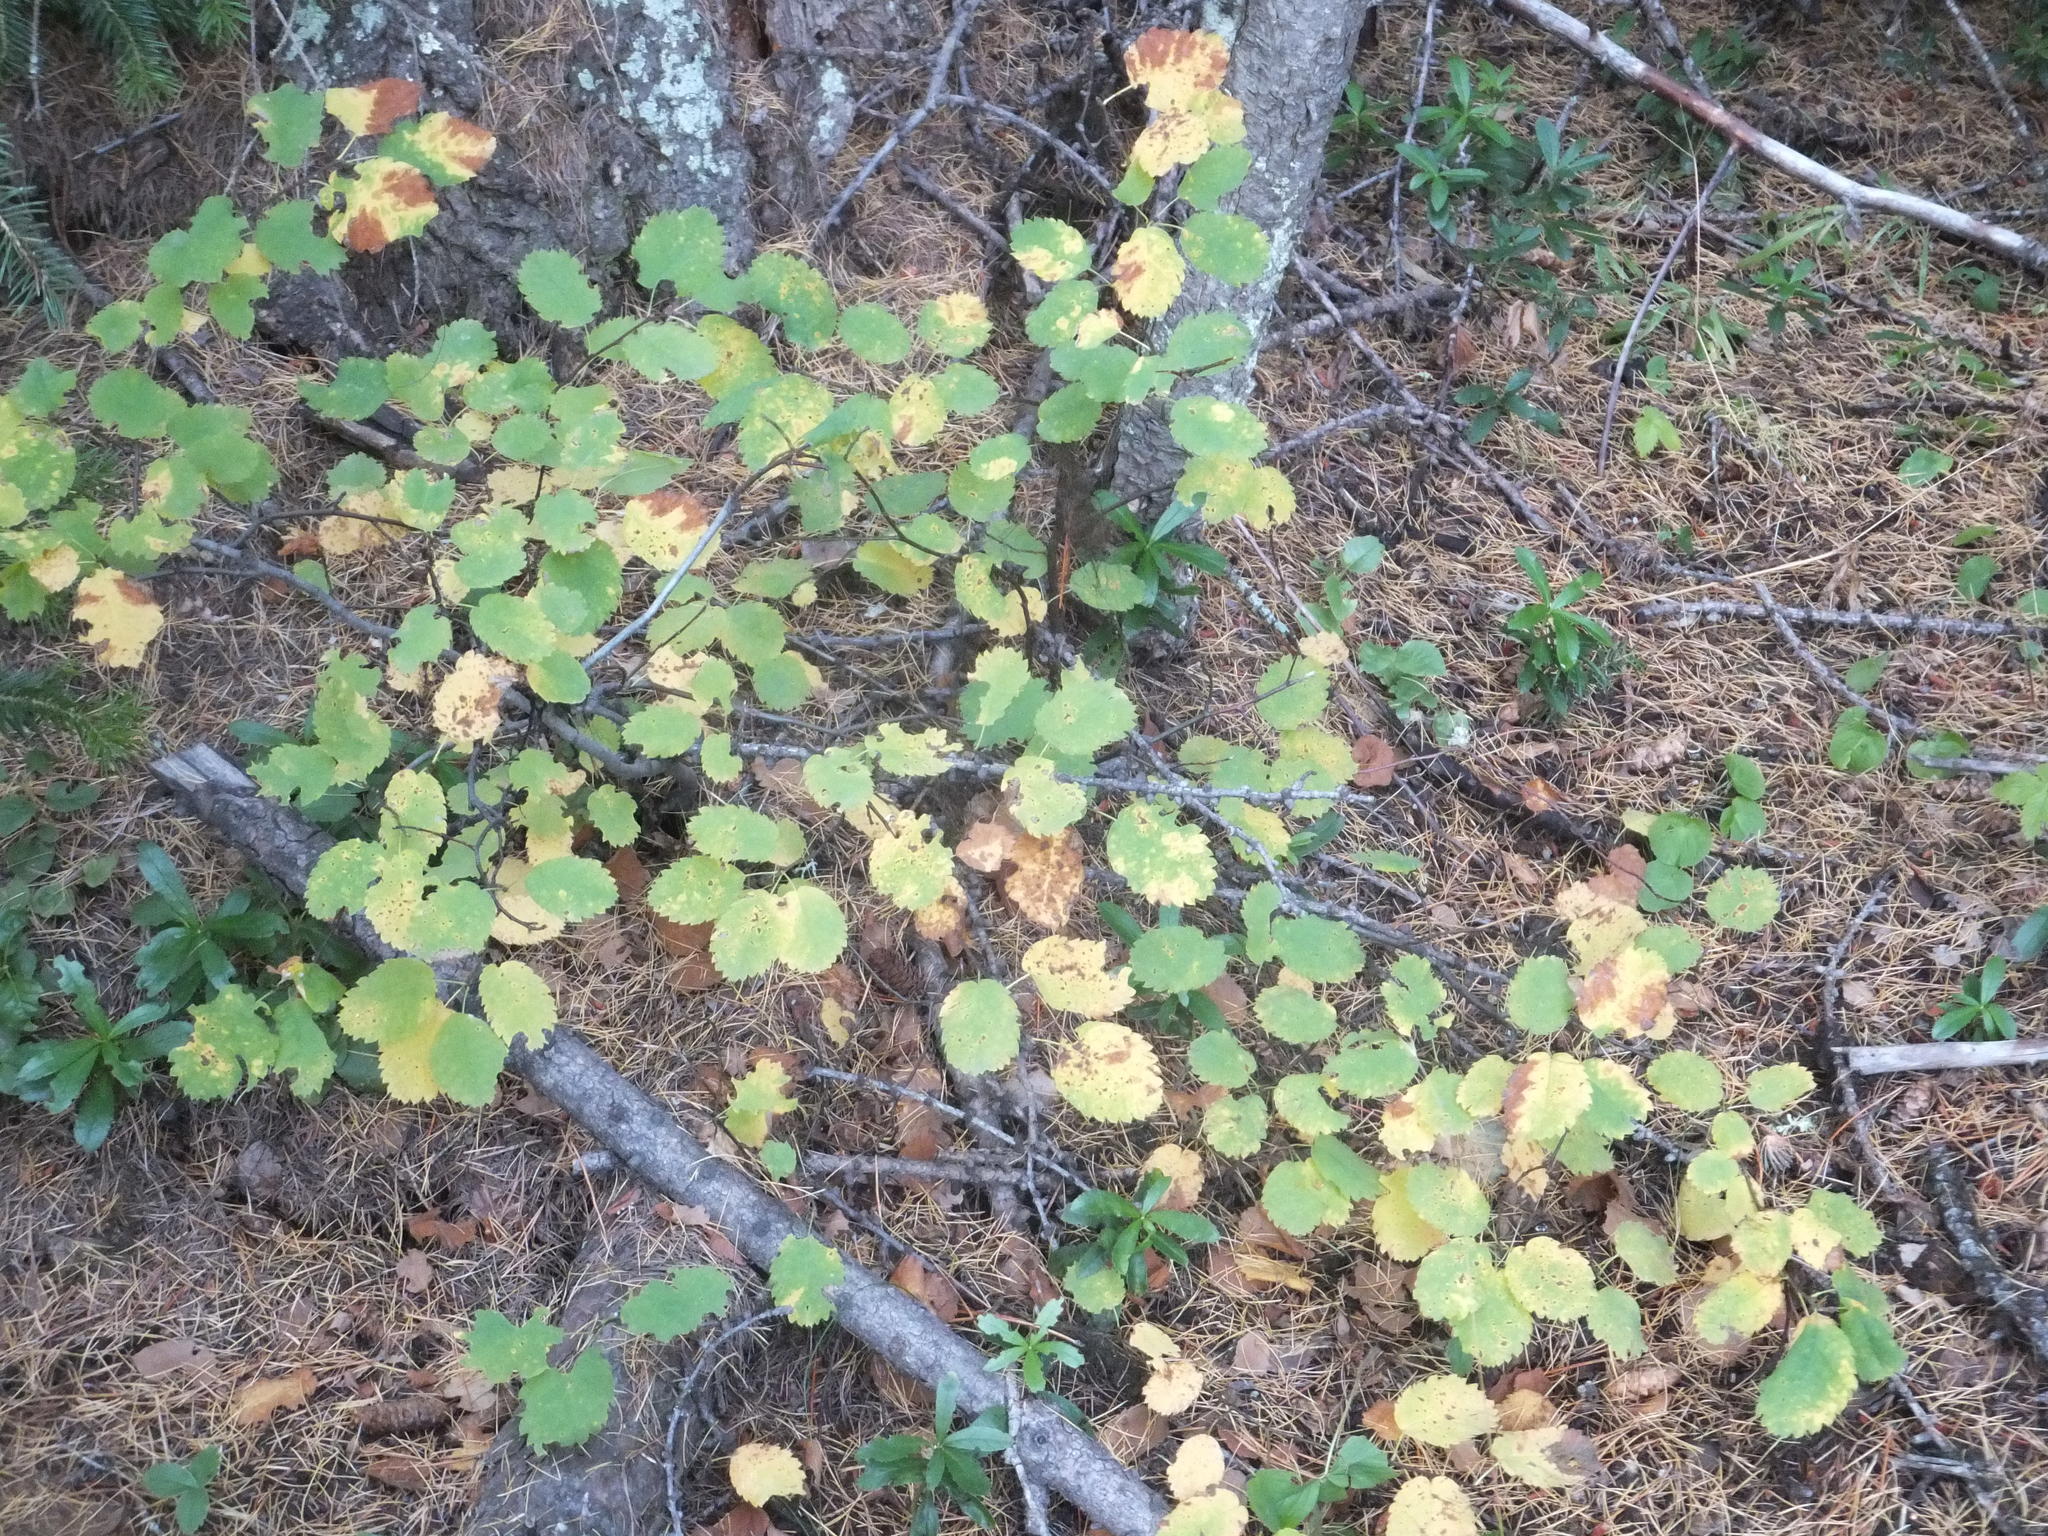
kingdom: Plantae
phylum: Tracheophyta
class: Magnoliopsida
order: Rosales
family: Rosaceae
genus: Amelanchier
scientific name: Amelanchier alnifolia
